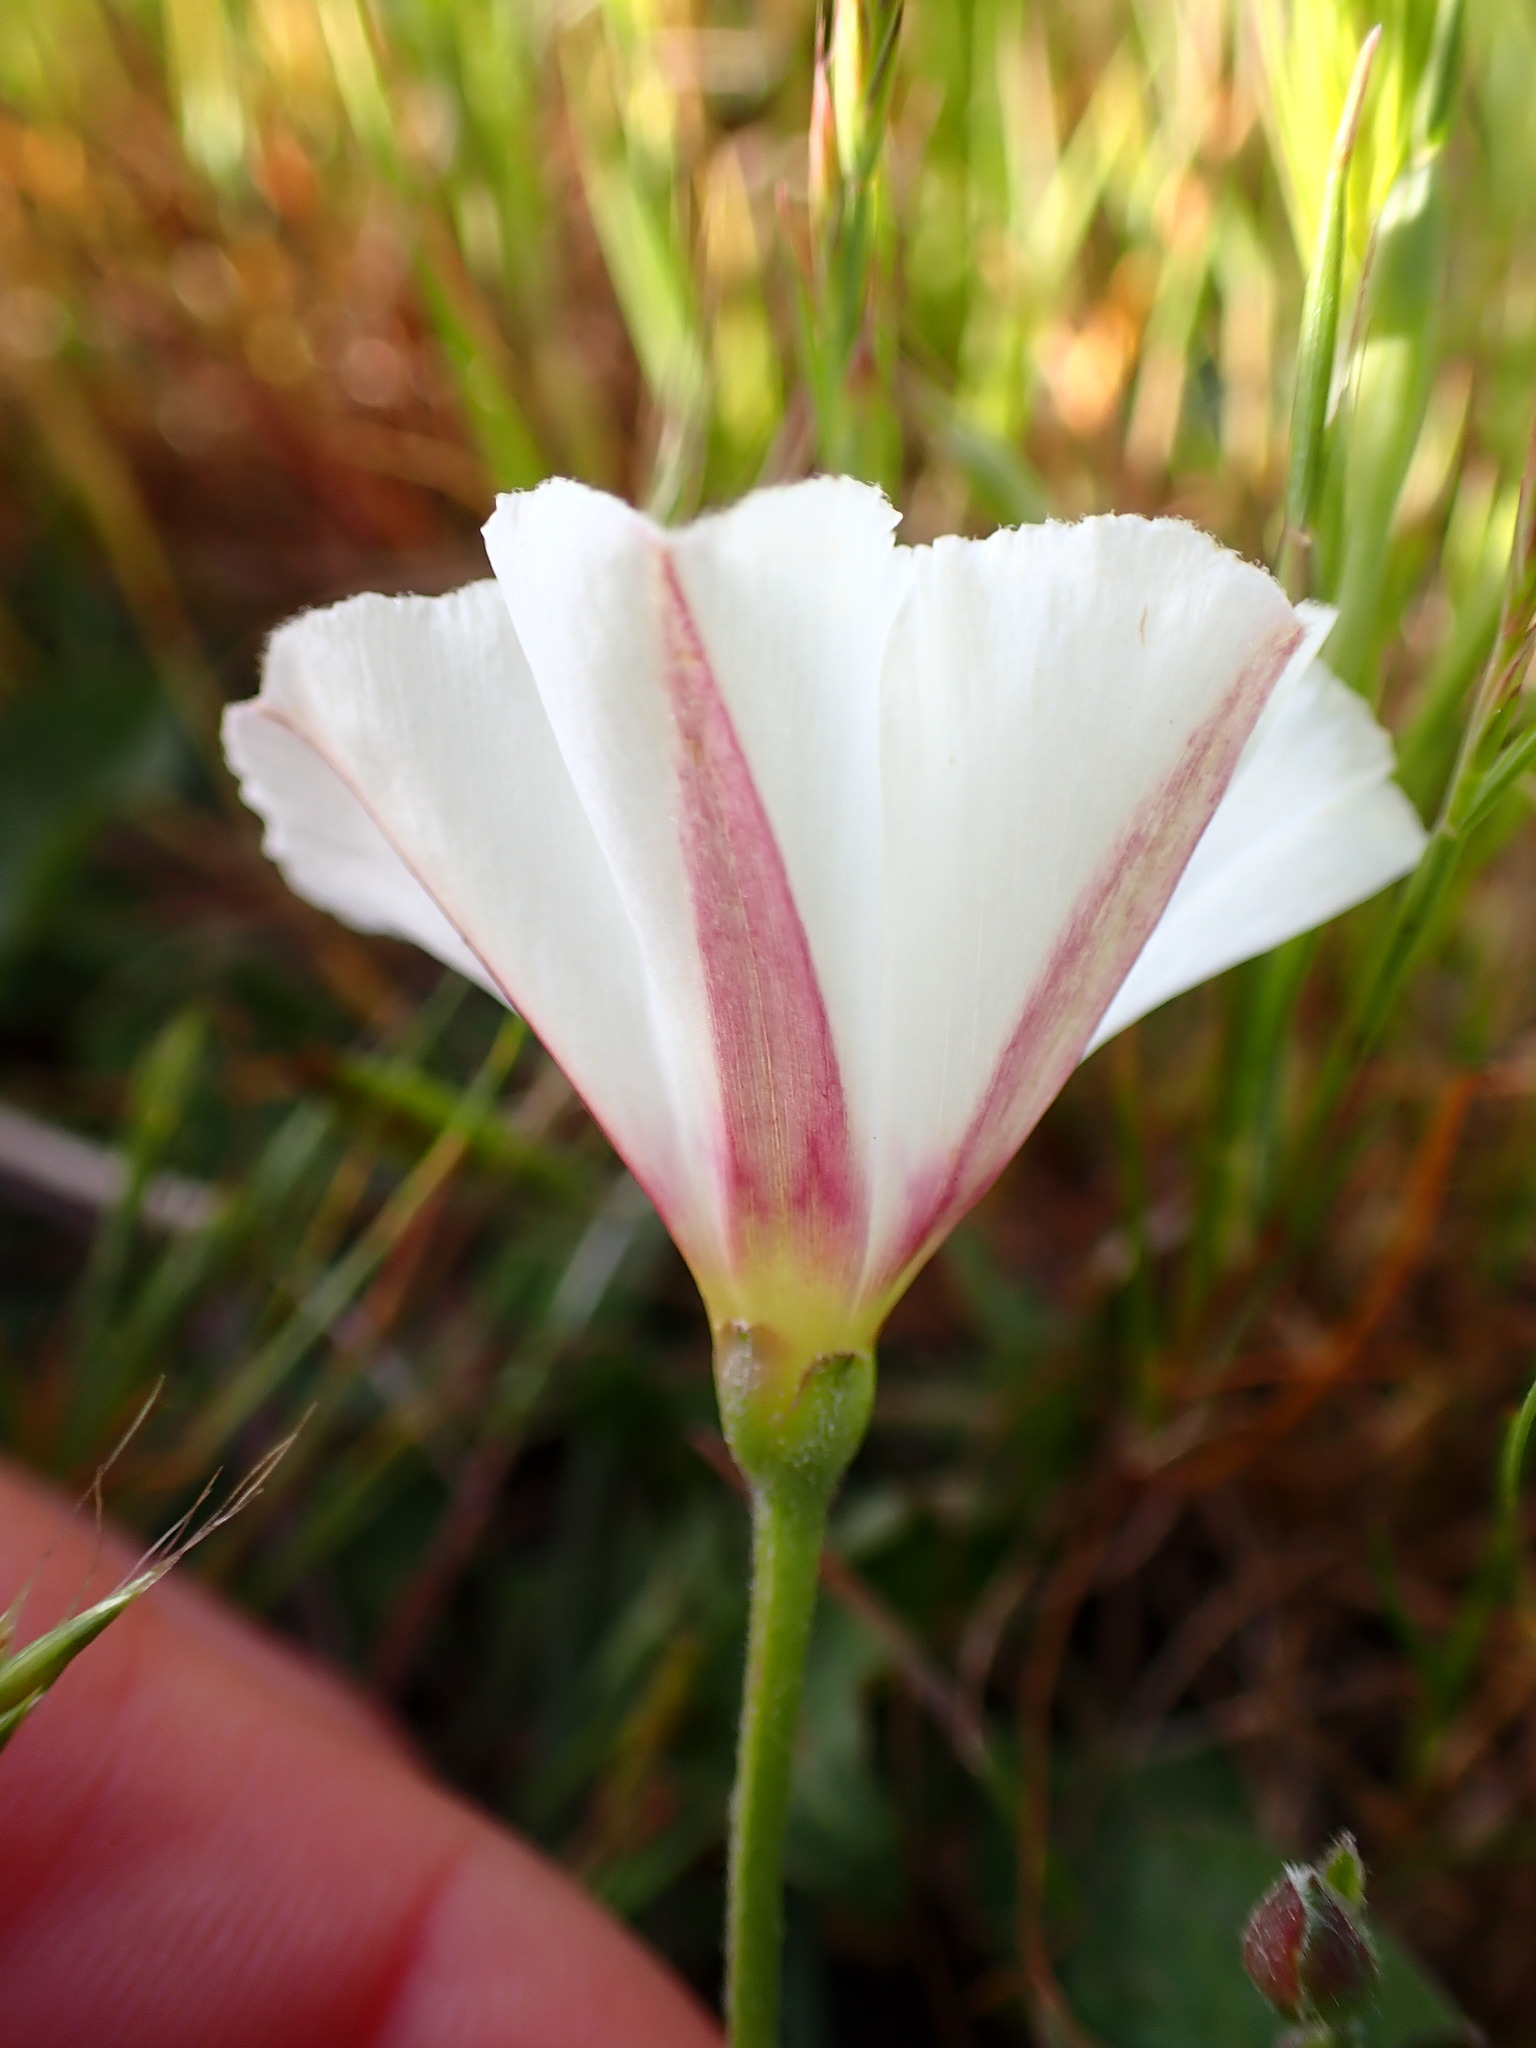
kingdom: Plantae
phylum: Tracheophyta
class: Magnoliopsida
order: Solanales
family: Convolvulaceae
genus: Convolvulus
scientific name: Convolvulus arvensis
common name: Field bindweed
